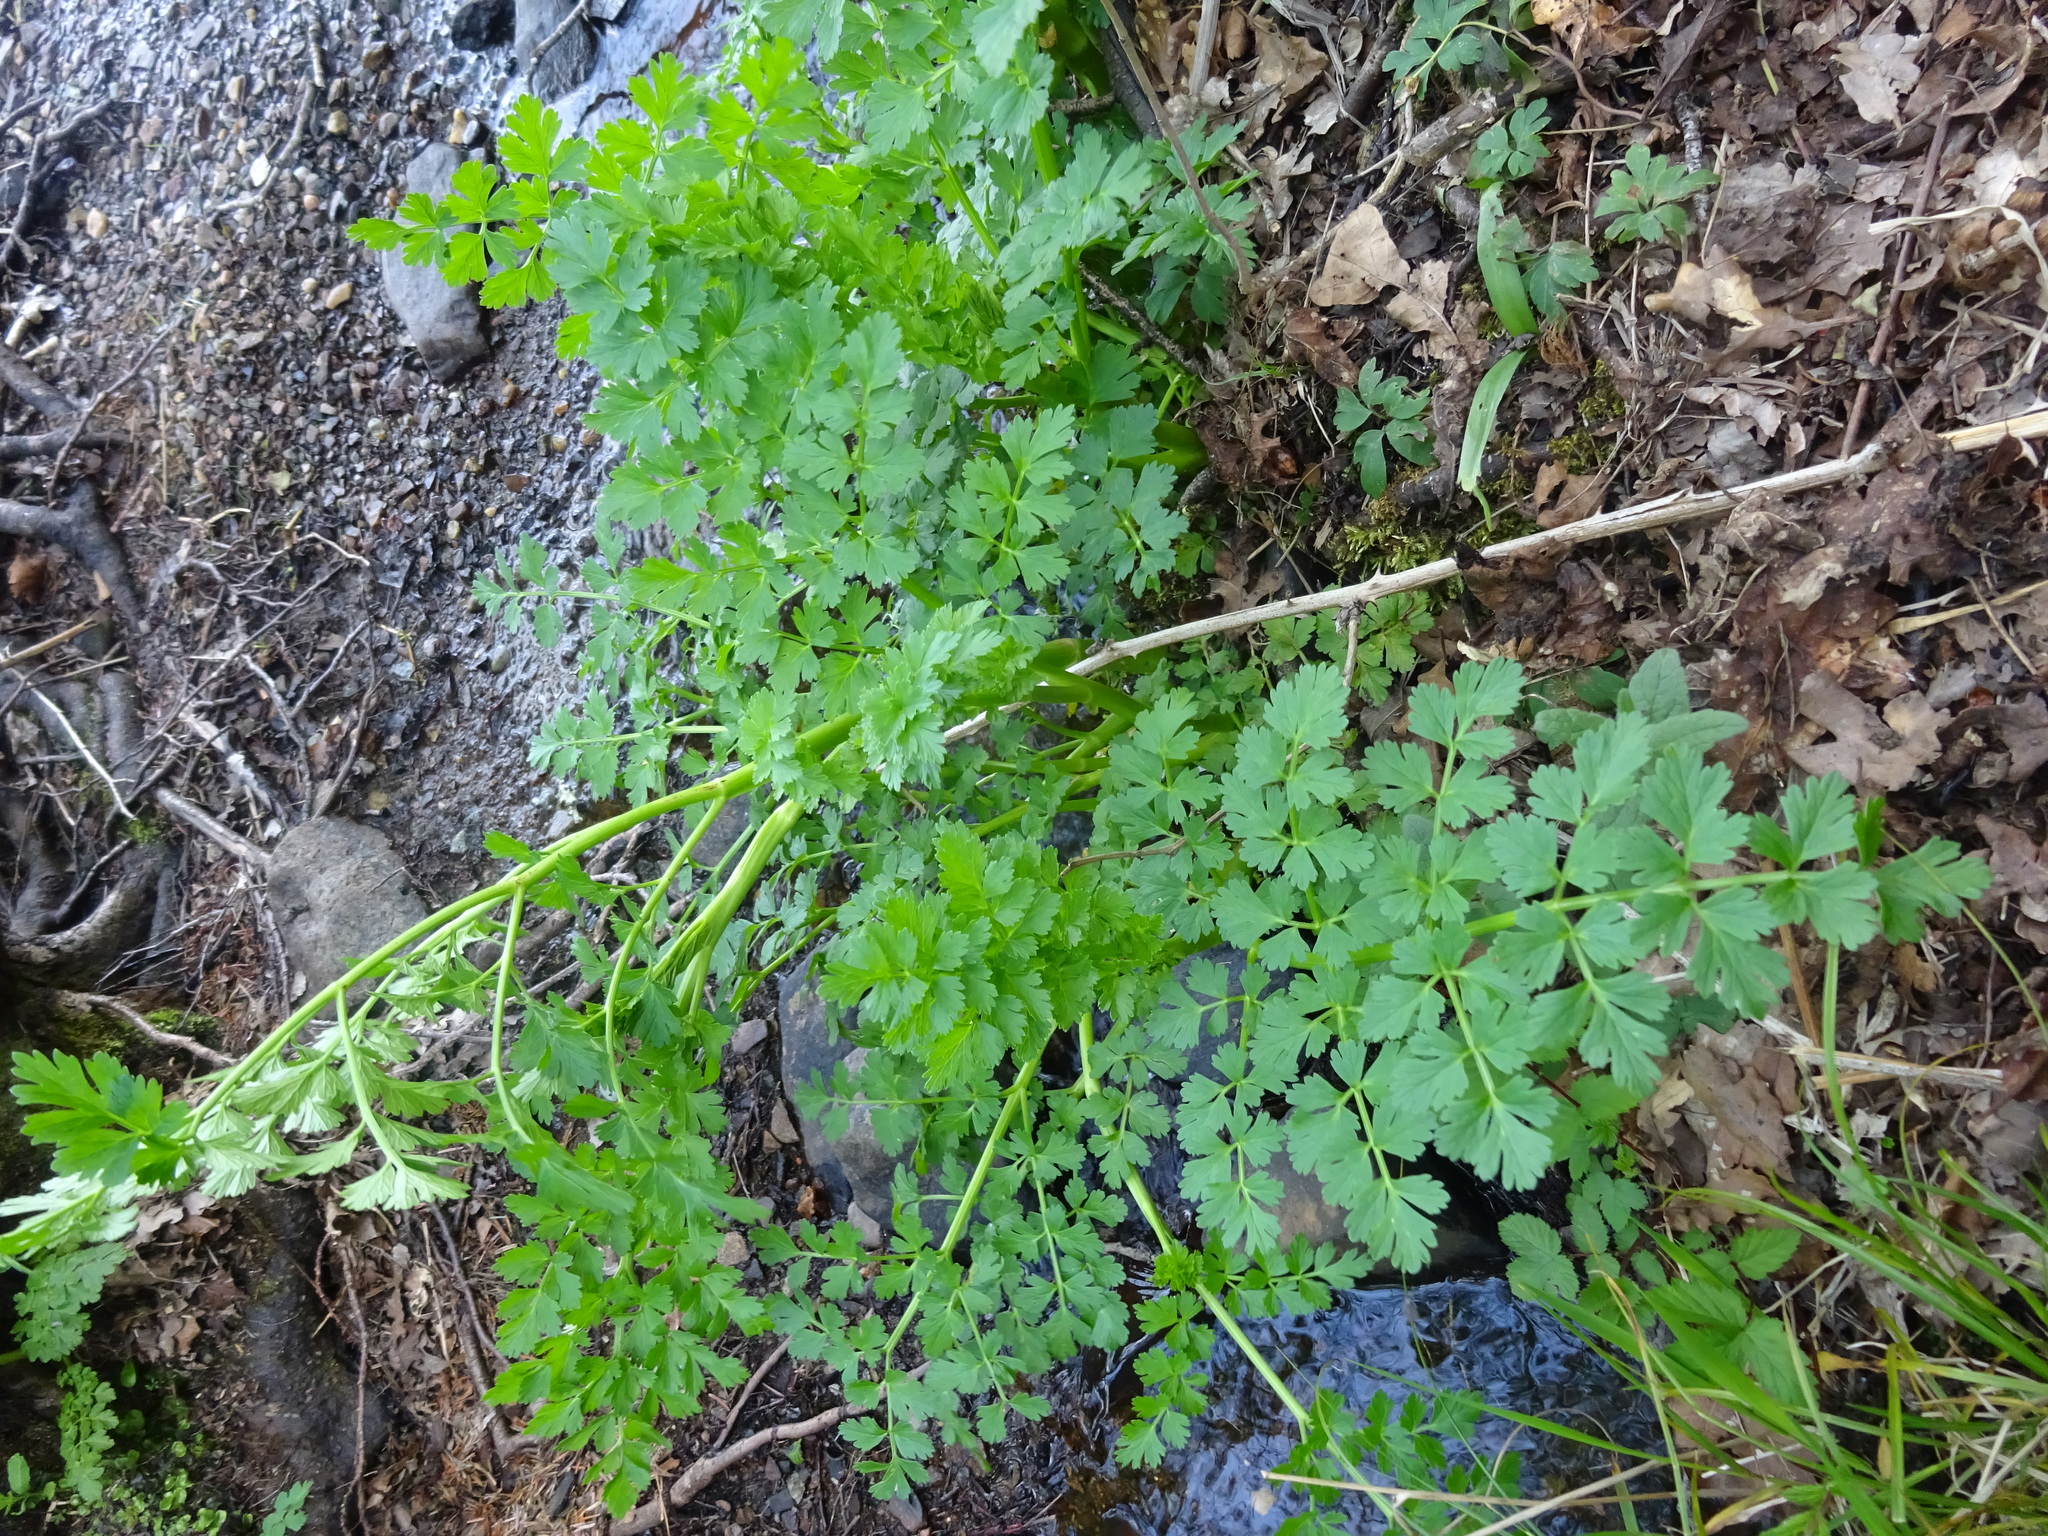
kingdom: Plantae
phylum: Tracheophyta
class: Magnoliopsida
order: Apiales
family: Apiaceae
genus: Oenanthe
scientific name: Oenanthe crocata
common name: Hemlock water-dropwort
